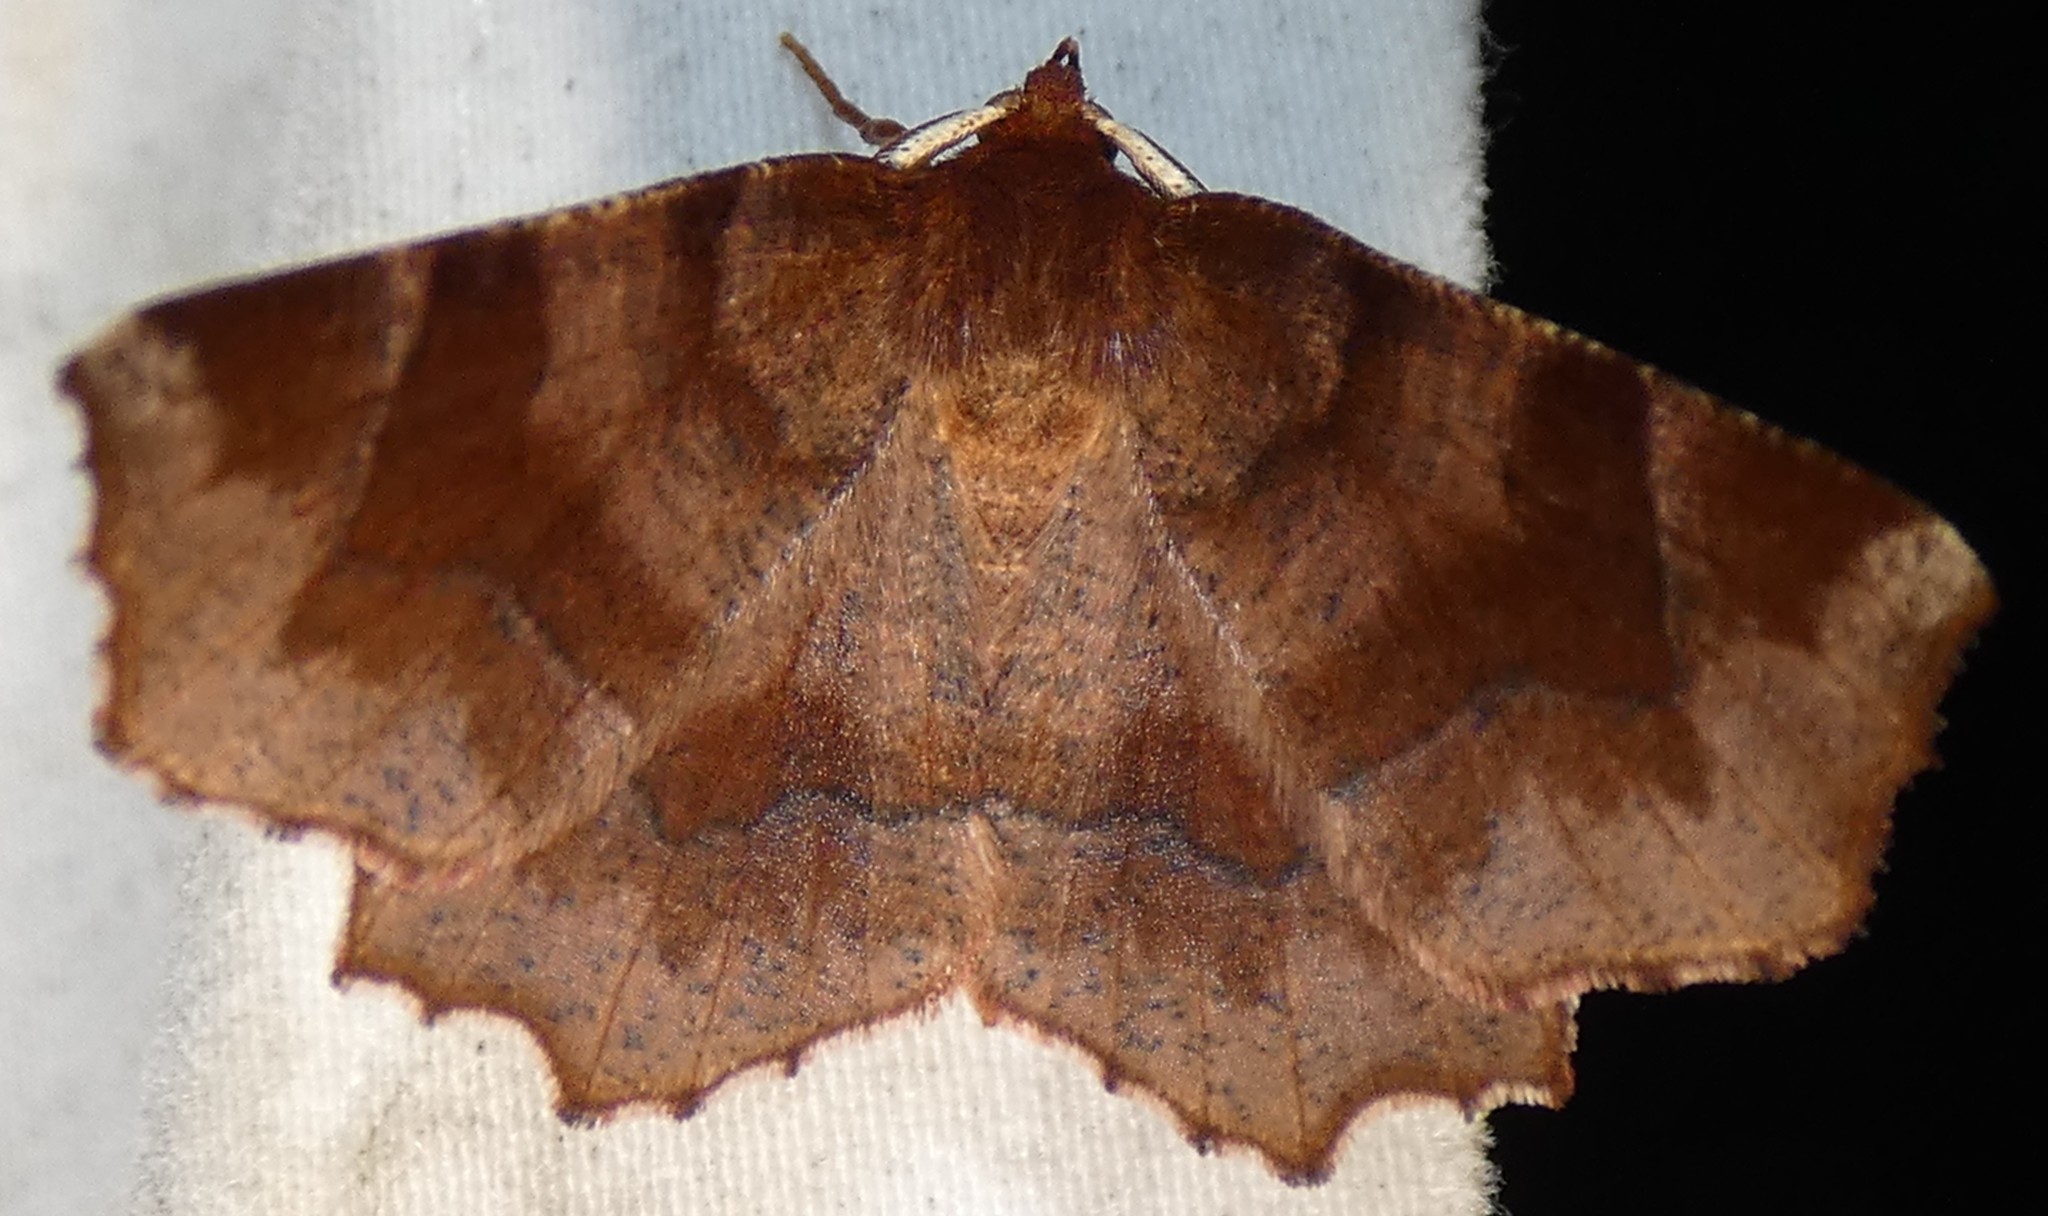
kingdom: Animalia
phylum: Arthropoda
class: Insecta
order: Lepidoptera
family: Geometridae
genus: Metarranthis
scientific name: Metarranthis homuraria
